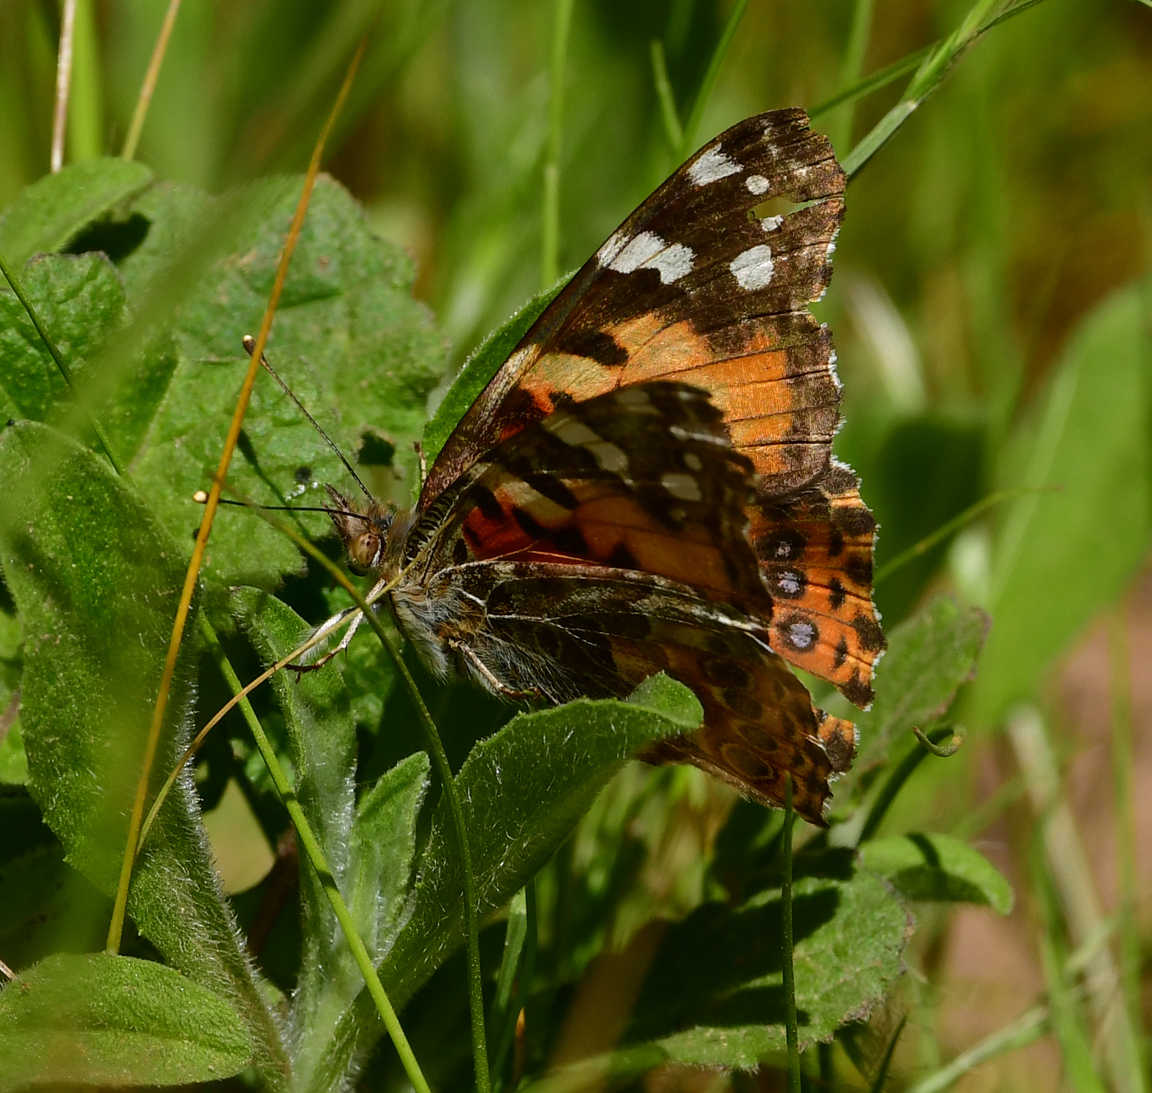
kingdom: Animalia
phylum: Arthropoda
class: Insecta
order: Lepidoptera
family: Nymphalidae
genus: Vanessa
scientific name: Vanessa cardui
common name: Painted lady
